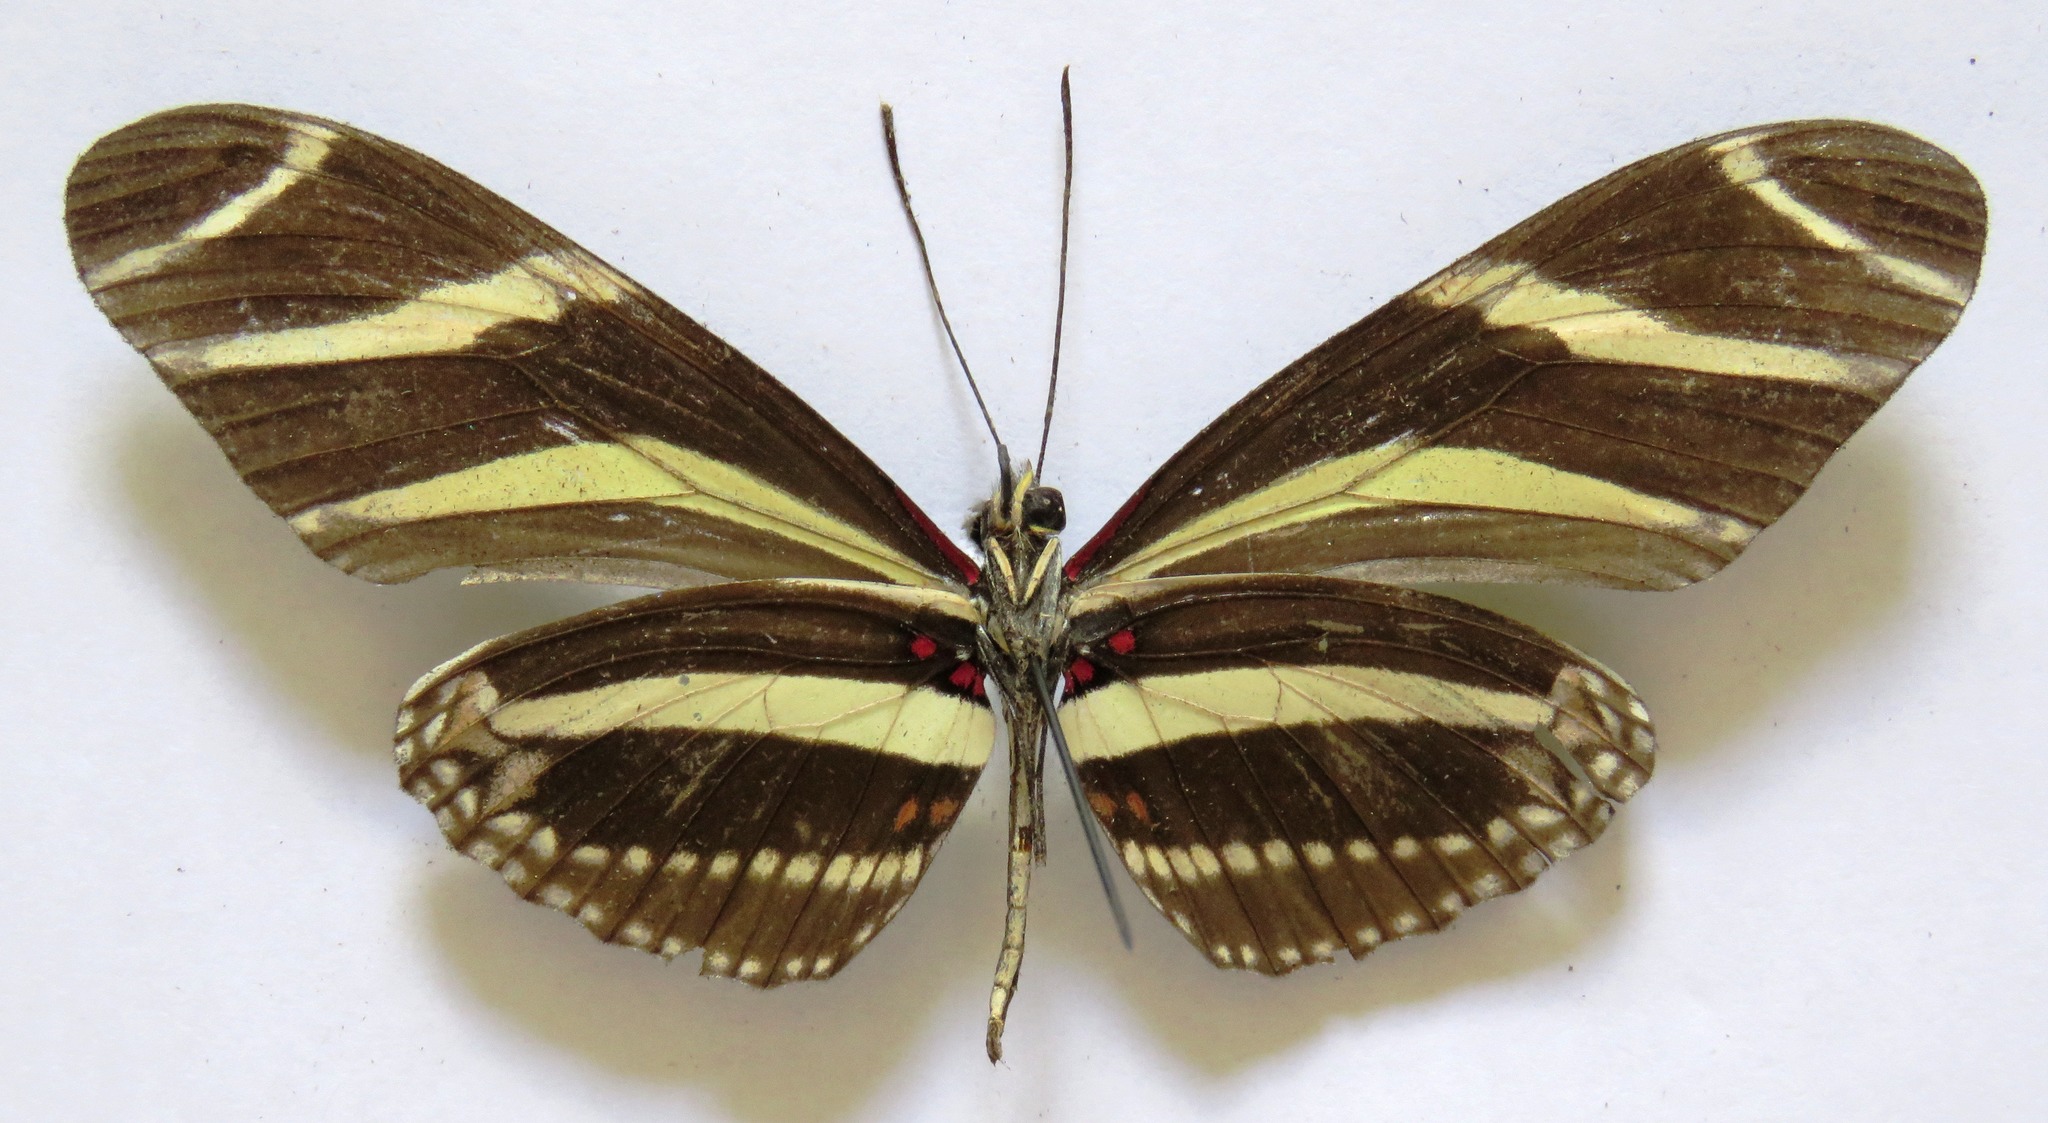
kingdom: Animalia
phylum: Arthropoda
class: Insecta
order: Lepidoptera
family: Nymphalidae
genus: Heliconius
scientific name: Heliconius charithonia
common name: Zebra long wing
